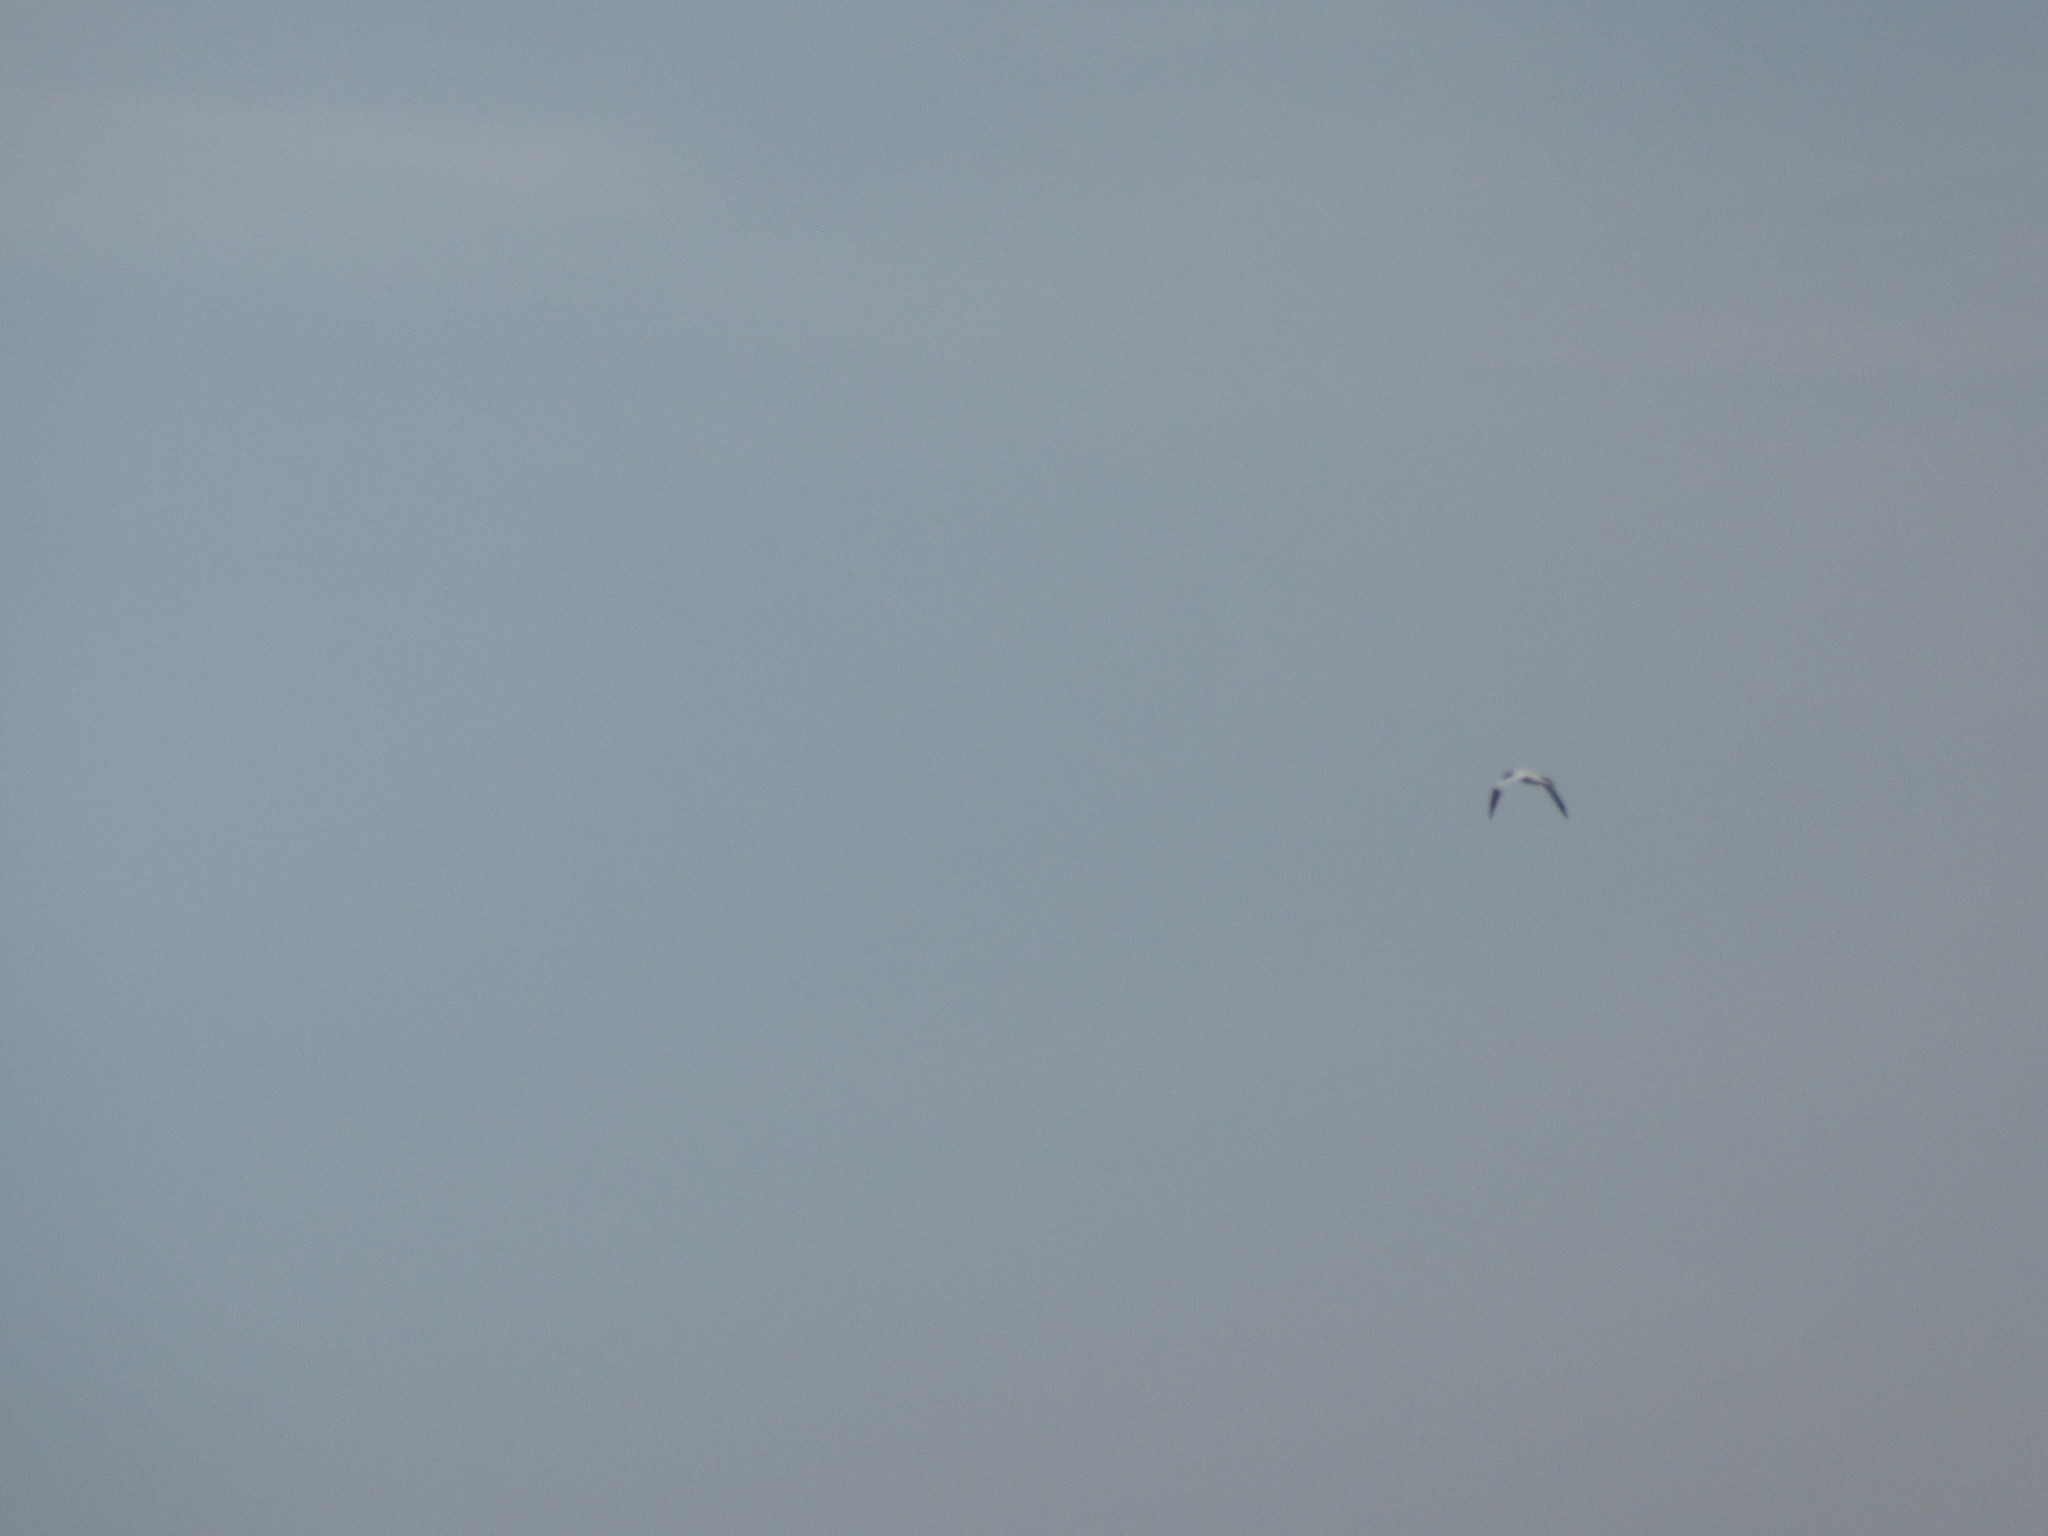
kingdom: Animalia
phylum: Chordata
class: Aves
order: Suliformes
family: Sulidae
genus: Morus
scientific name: Morus bassanus
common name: Northern gannet
